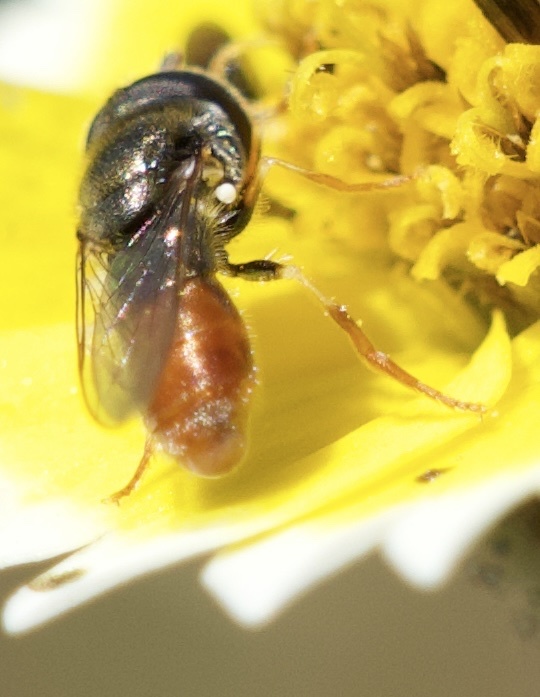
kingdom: Animalia
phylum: Arthropoda
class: Insecta
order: Diptera
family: Syrphidae
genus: Paragus
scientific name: Paragus haemorrhous
